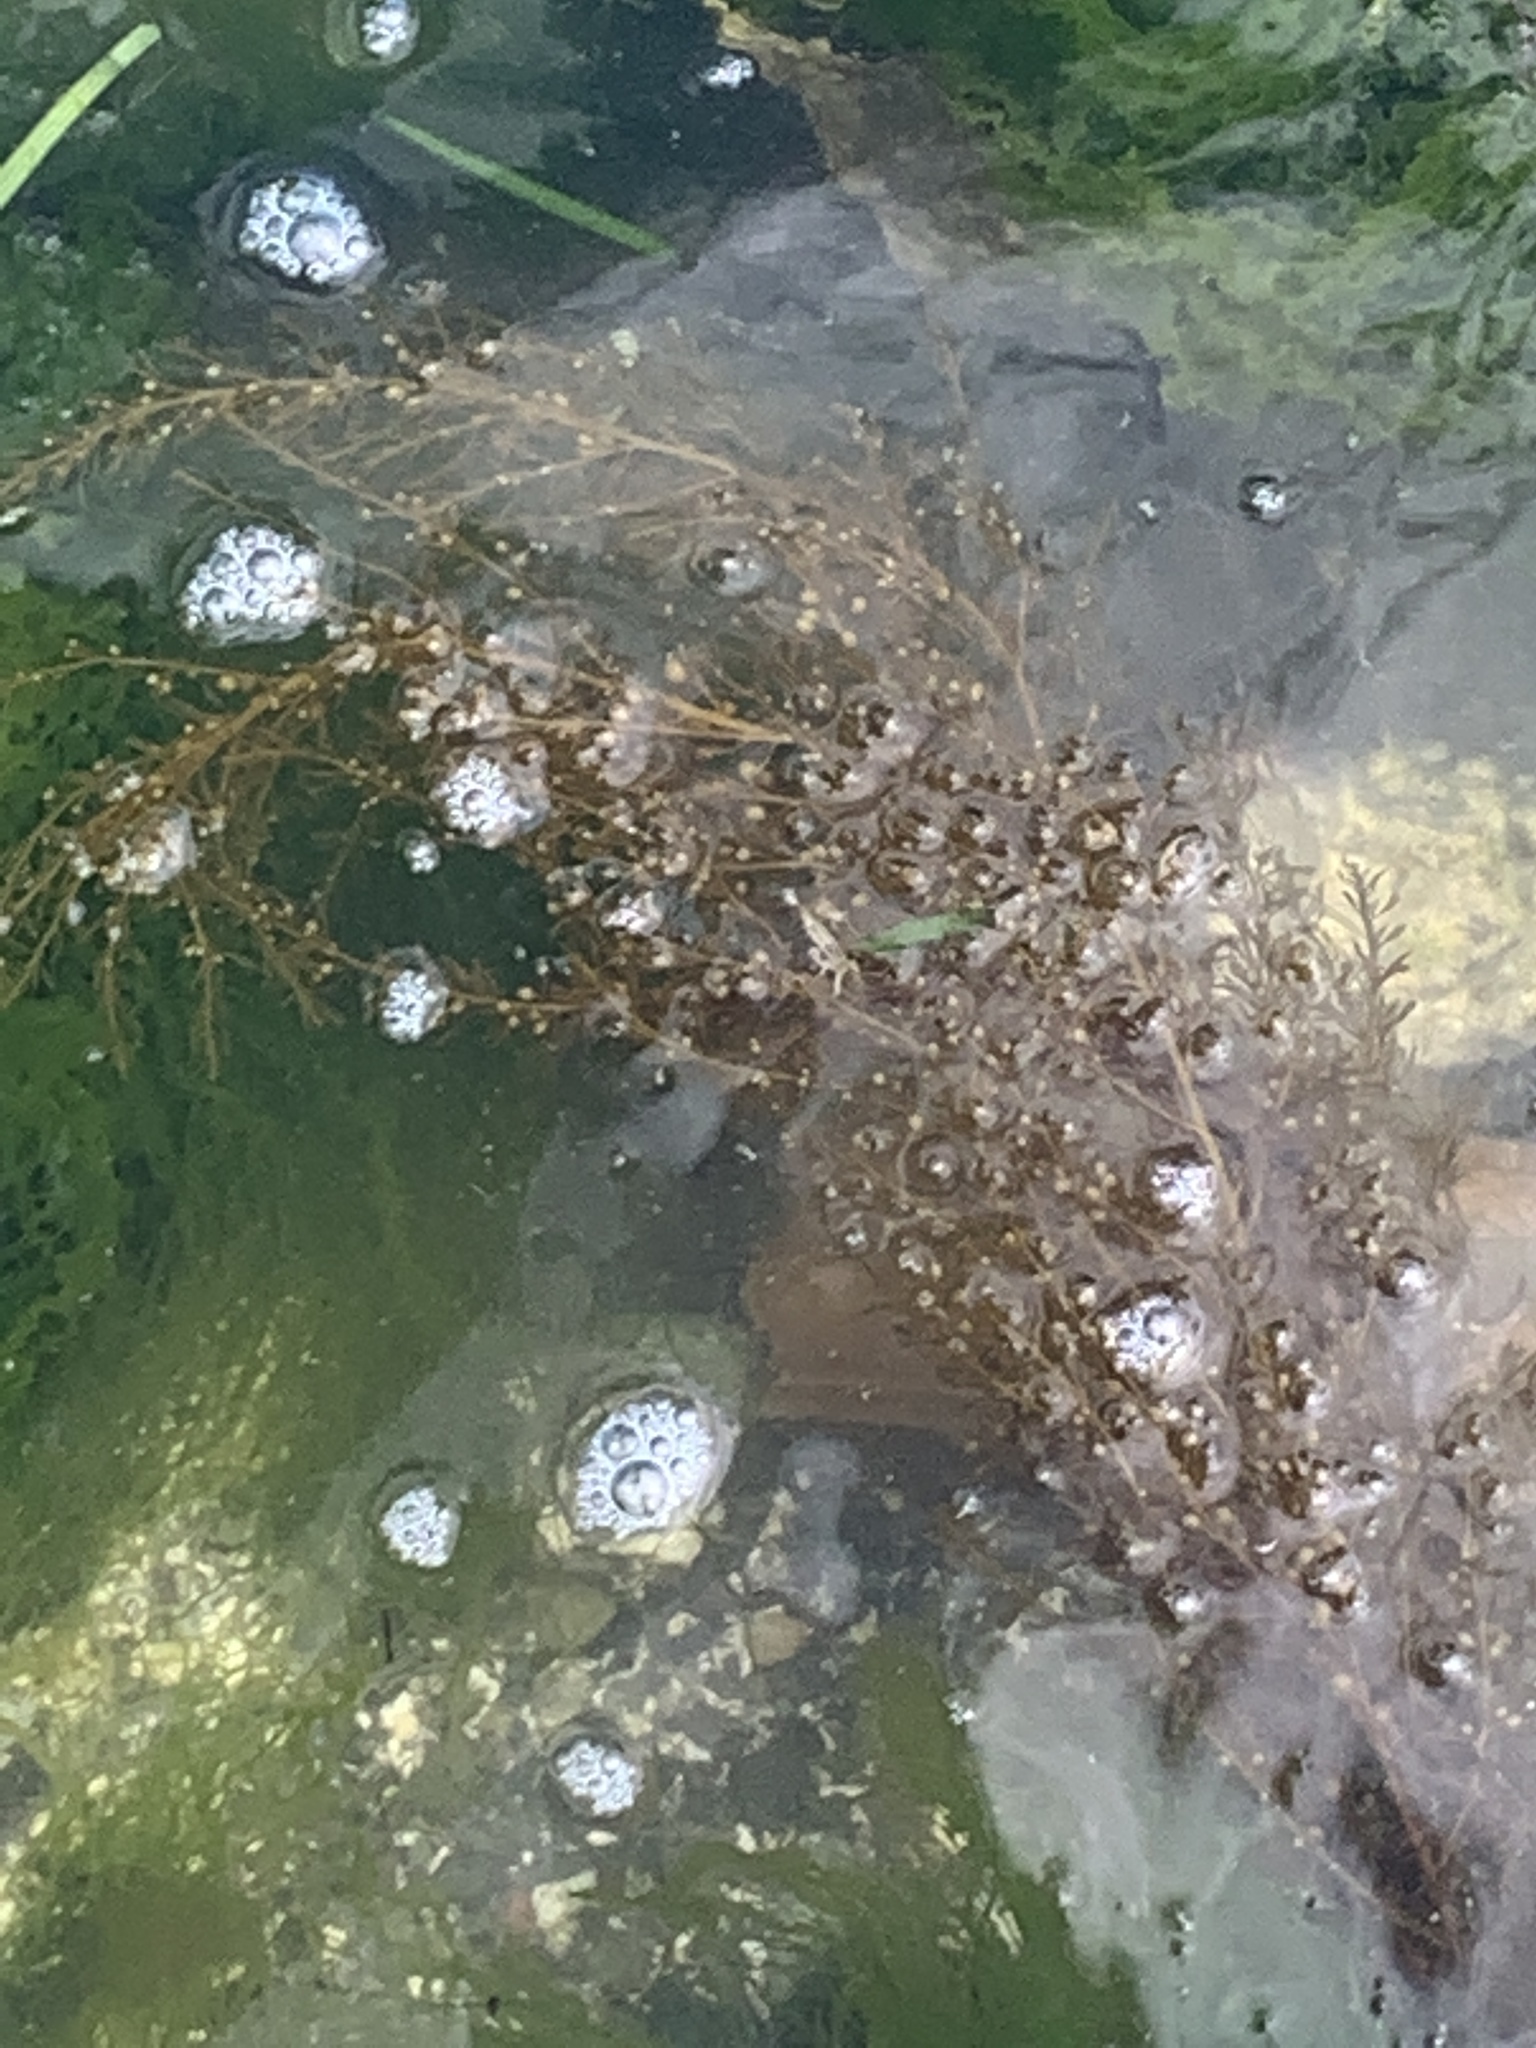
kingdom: Chromista
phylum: Ochrophyta
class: Phaeophyceae
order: Fucales
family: Sargassaceae
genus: Sargassum
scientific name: Sargassum muticum
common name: Japweed
